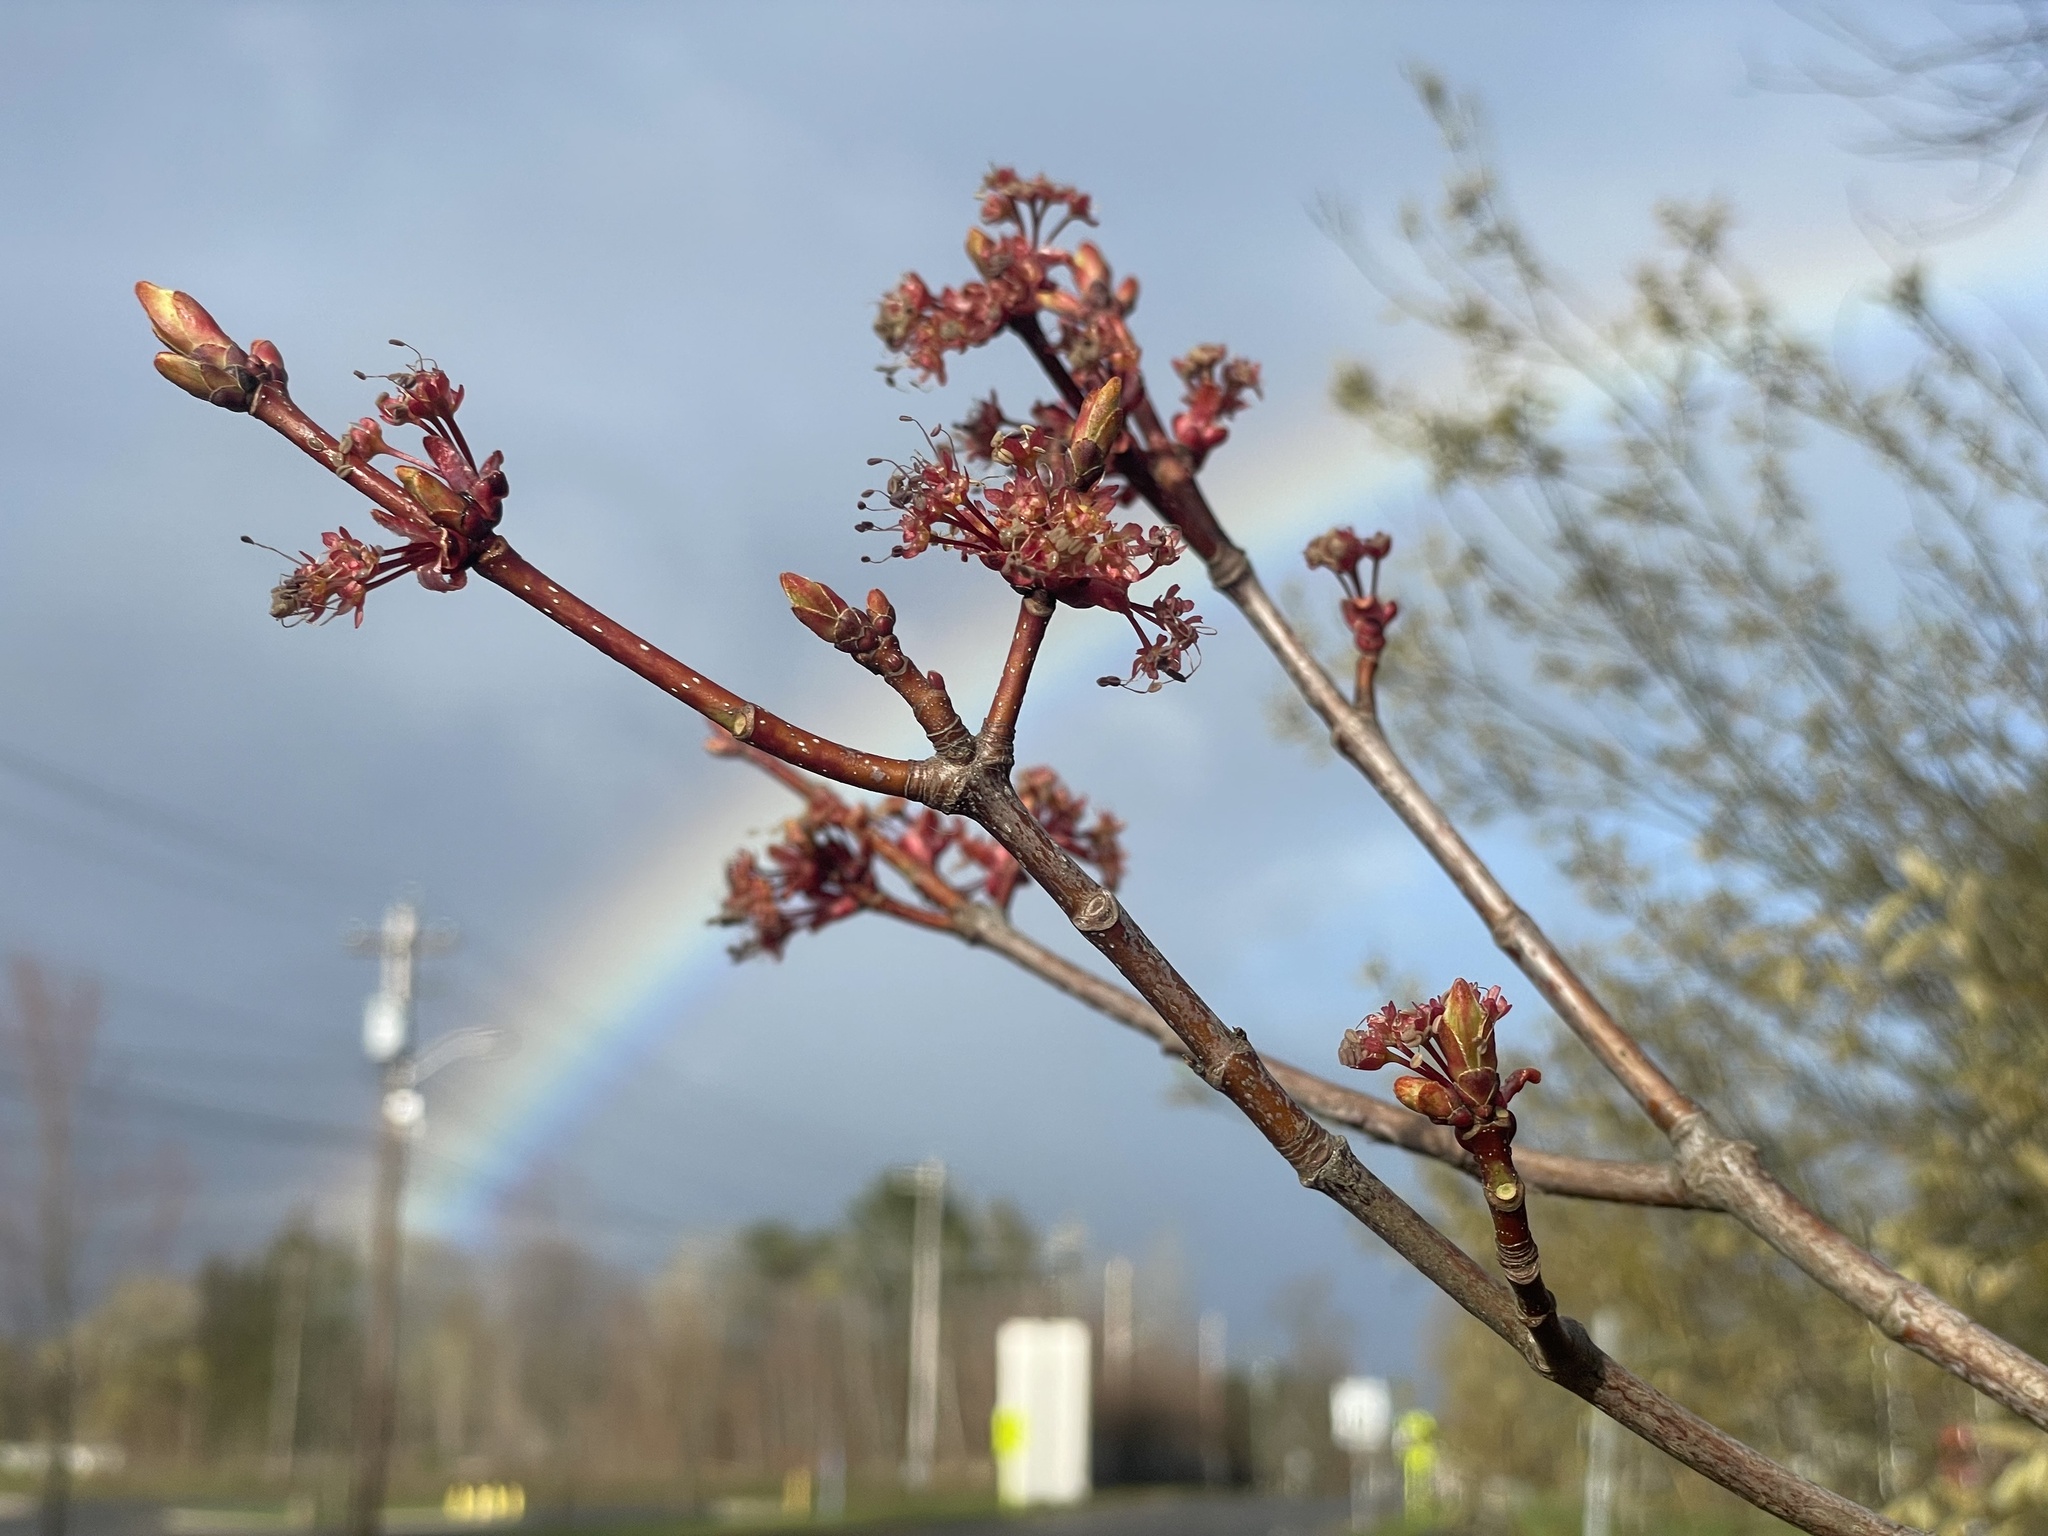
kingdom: Plantae
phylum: Tracheophyta
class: Magnoliopsida
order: Sapindales
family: Sapindaceae
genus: Acer
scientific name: Acer rubrum
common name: Red maple
